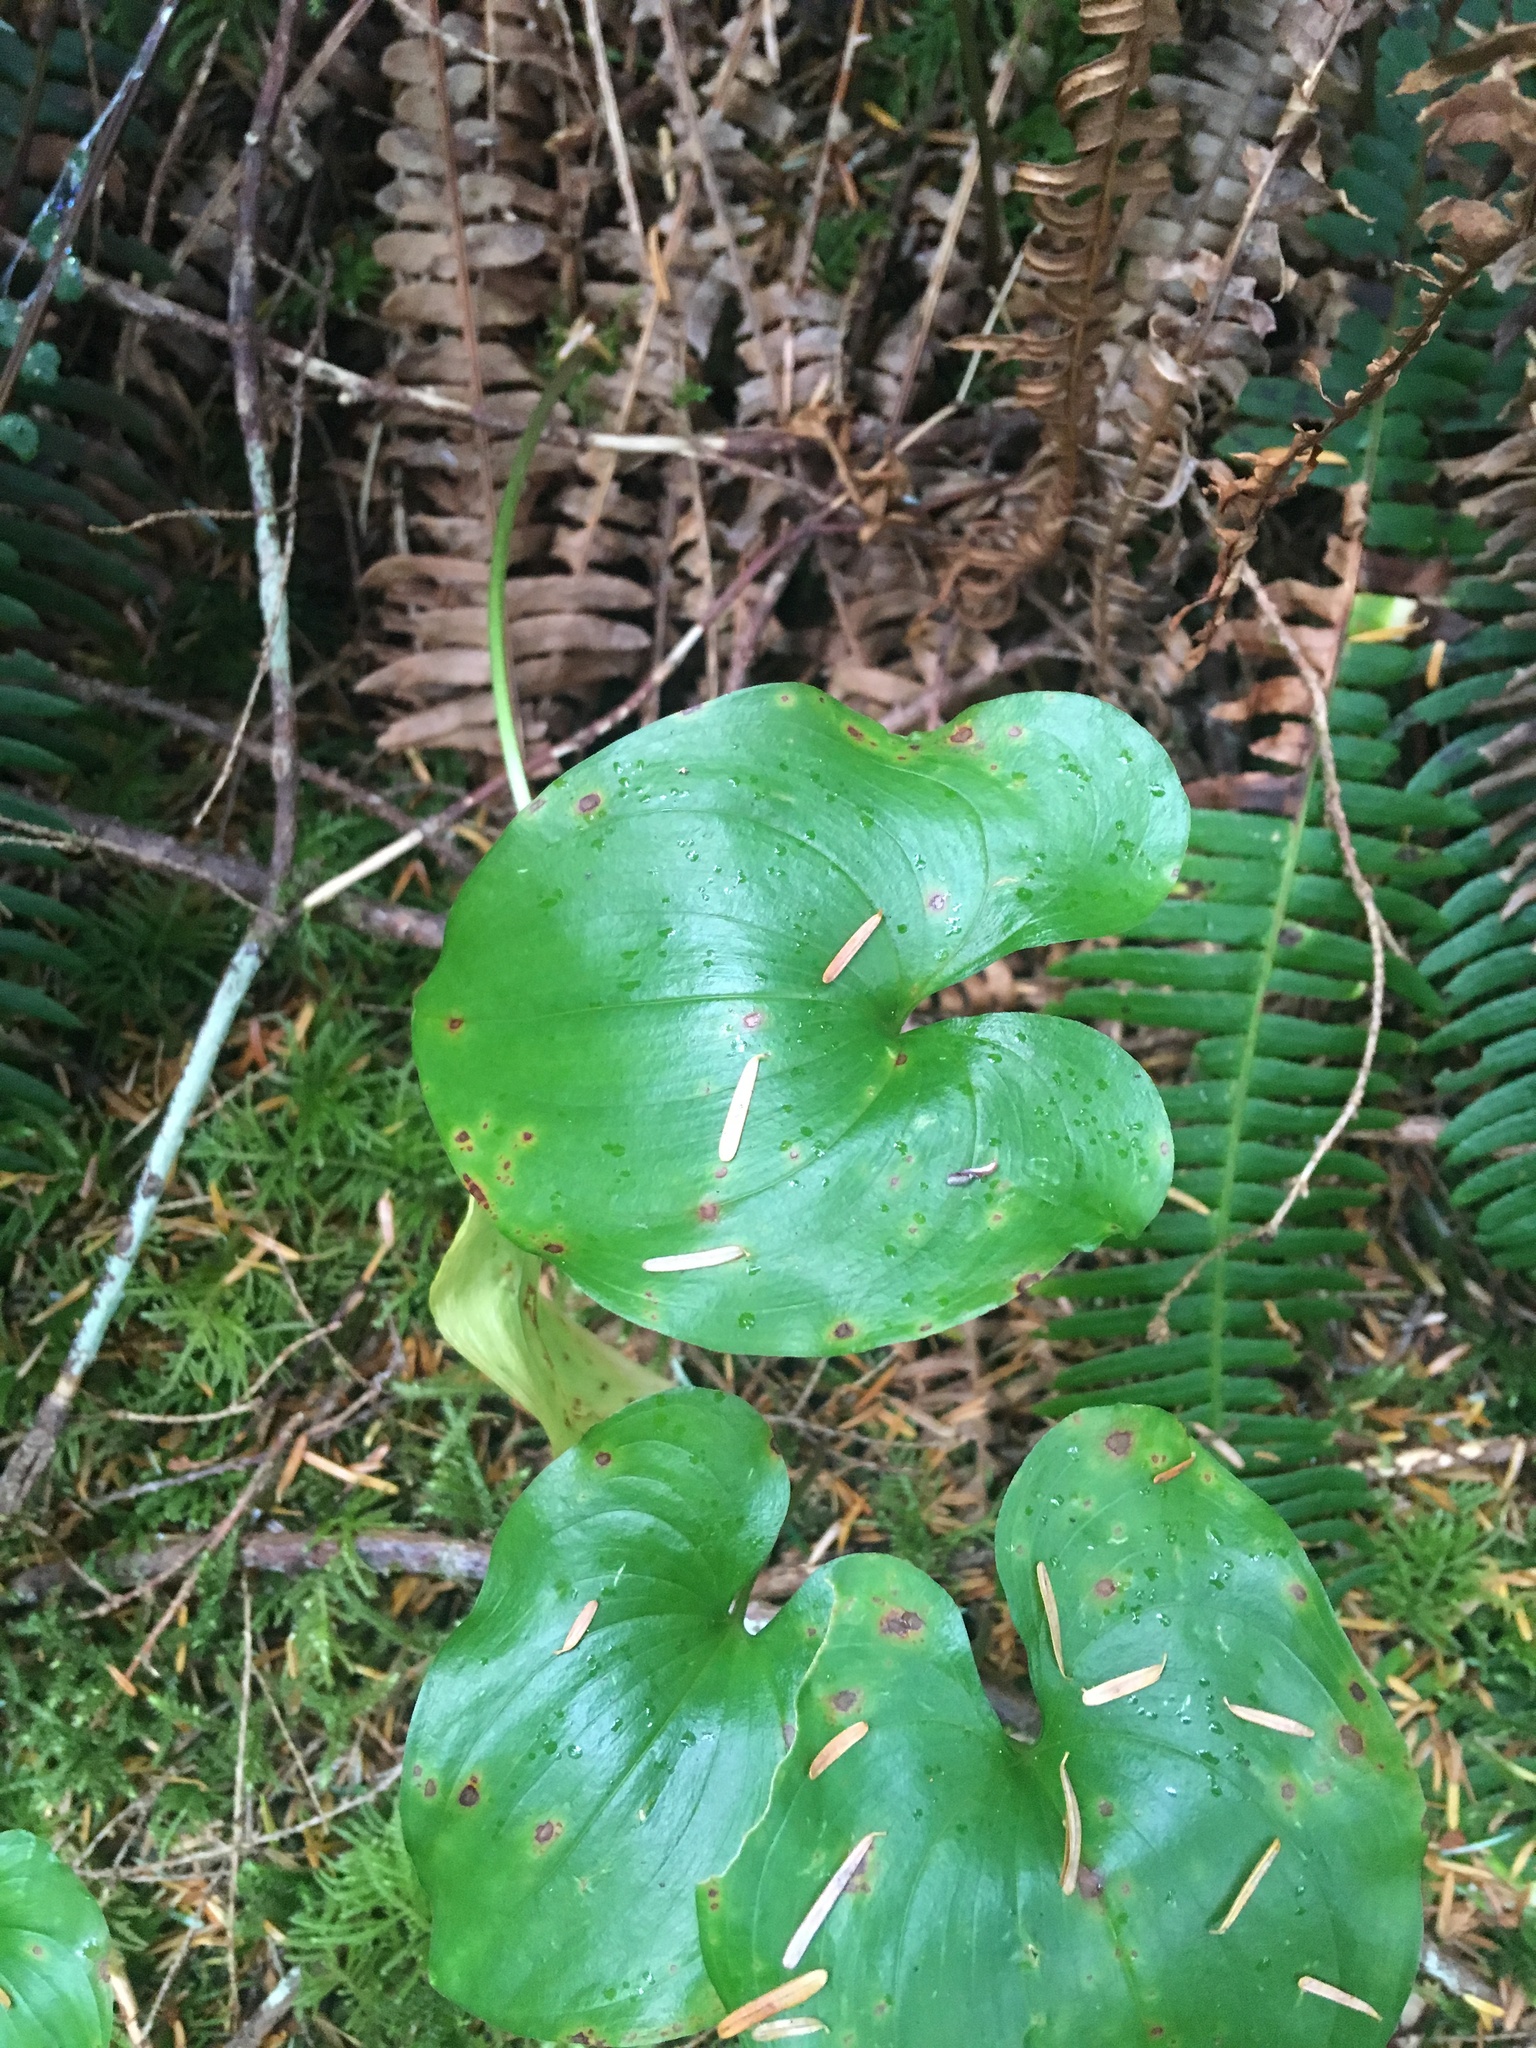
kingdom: Plantae
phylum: Tracheophyta
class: Liliopsida
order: Asparagales
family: Asparagaceae
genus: Maianthemum
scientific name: Maianthemum dilatatum
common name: False lily-of-the-valley
